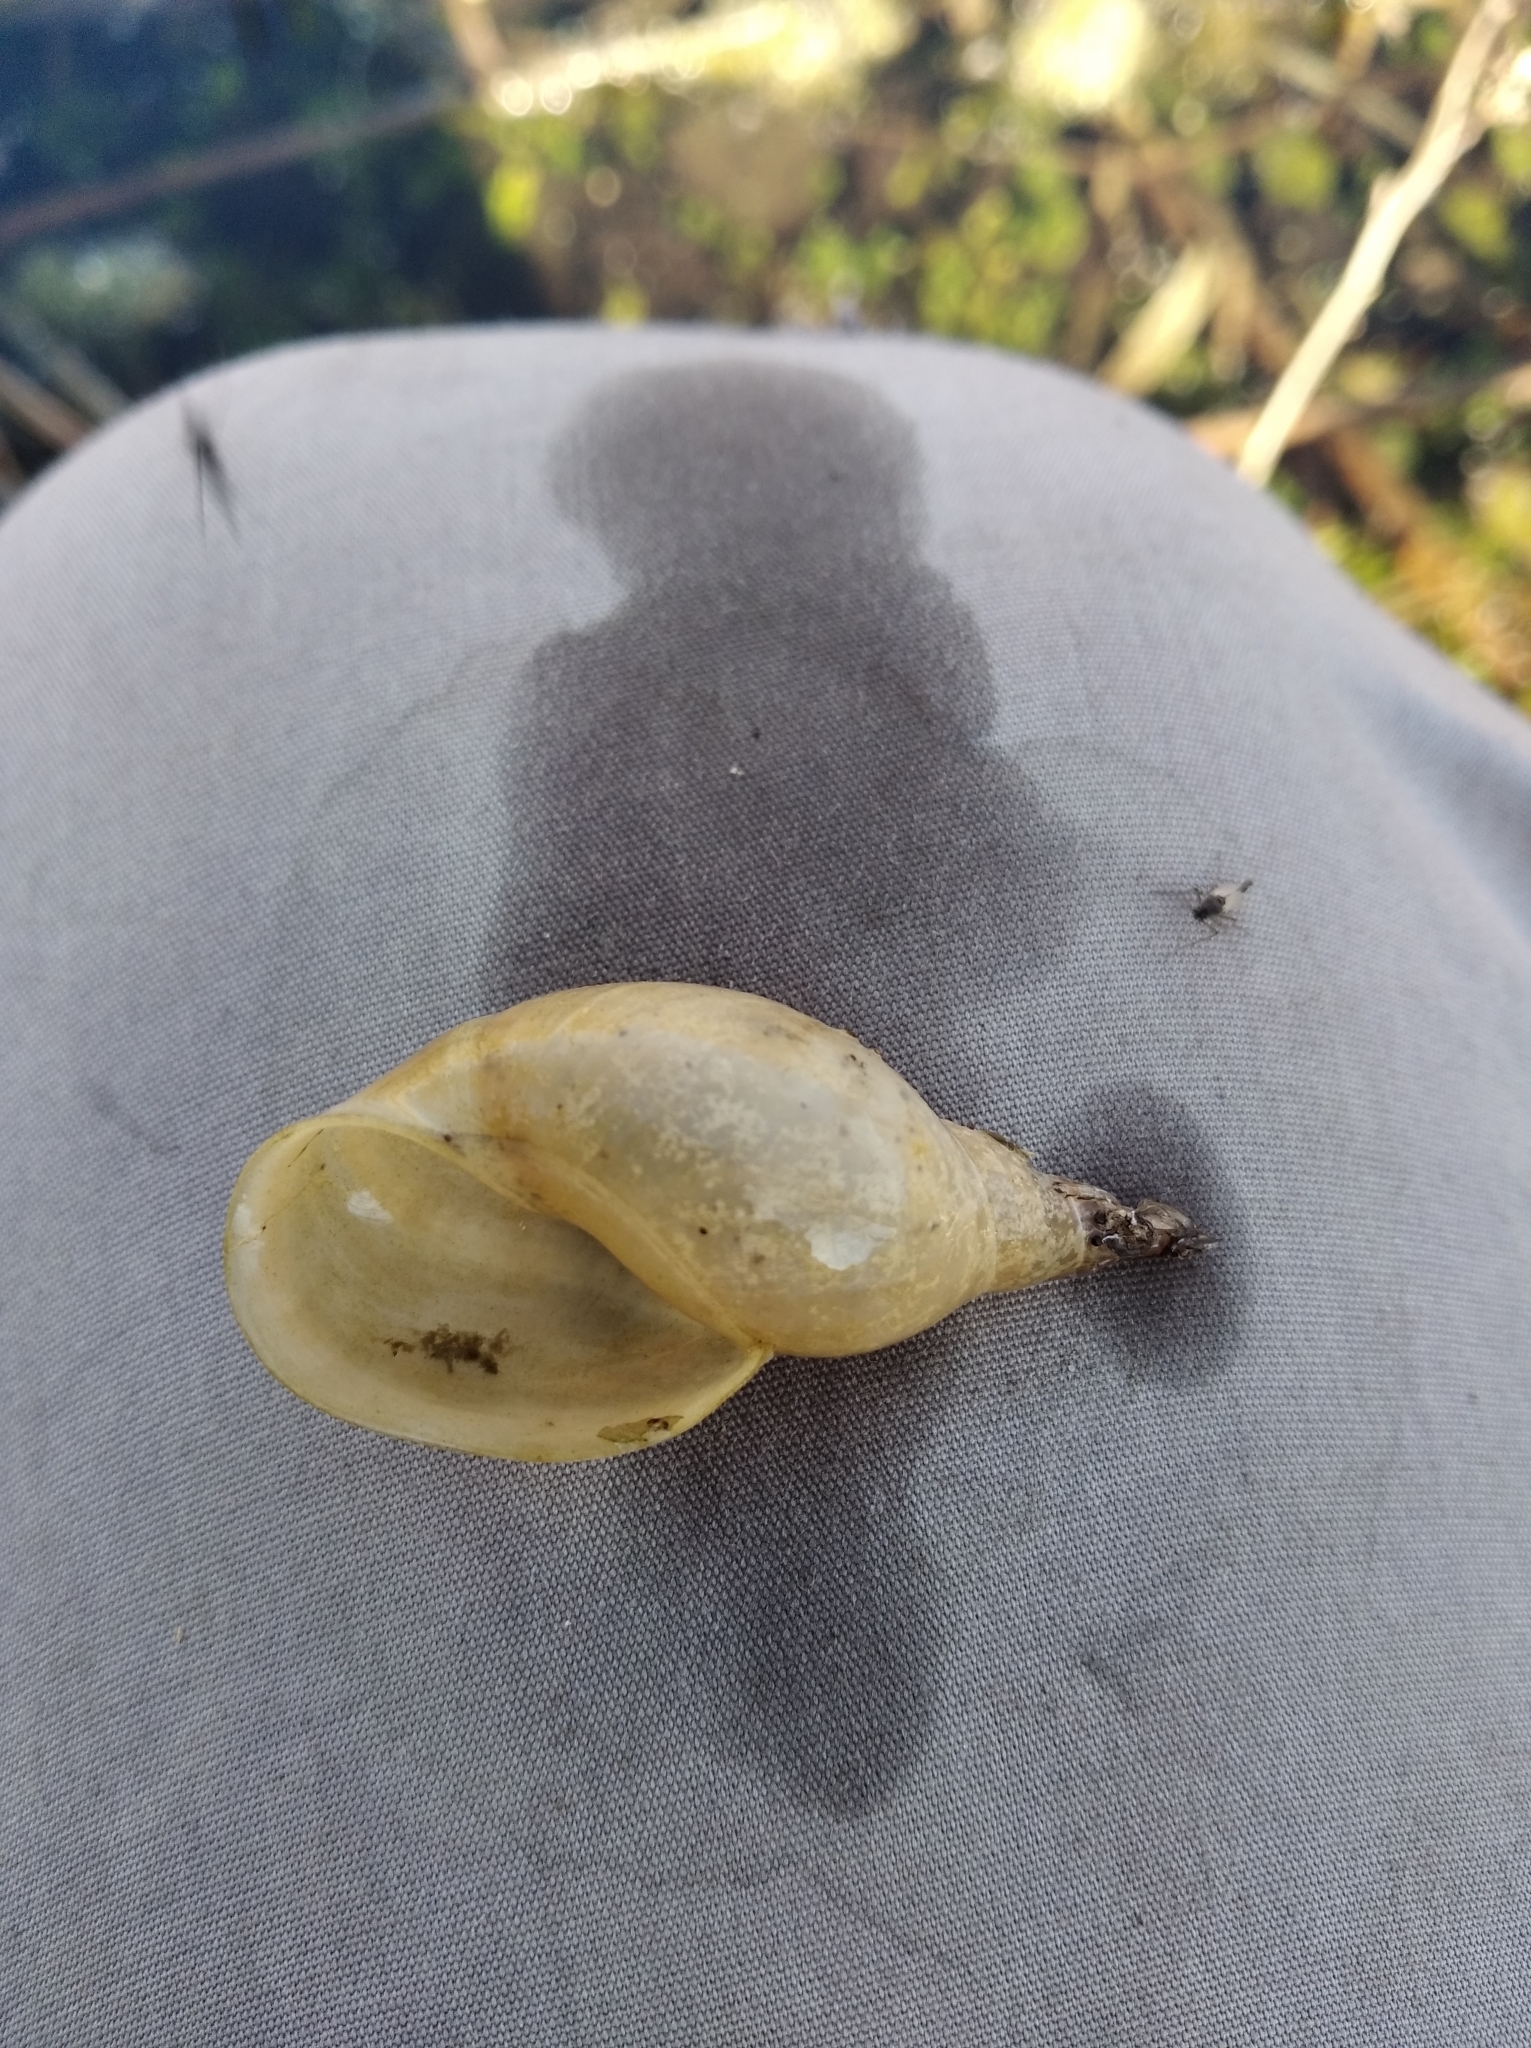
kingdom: Animalia
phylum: Mollusca
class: Gastropoda
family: Lymnaeidae
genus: Lymnaea
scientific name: Lymnaea stagnalis
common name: Great pond snail
